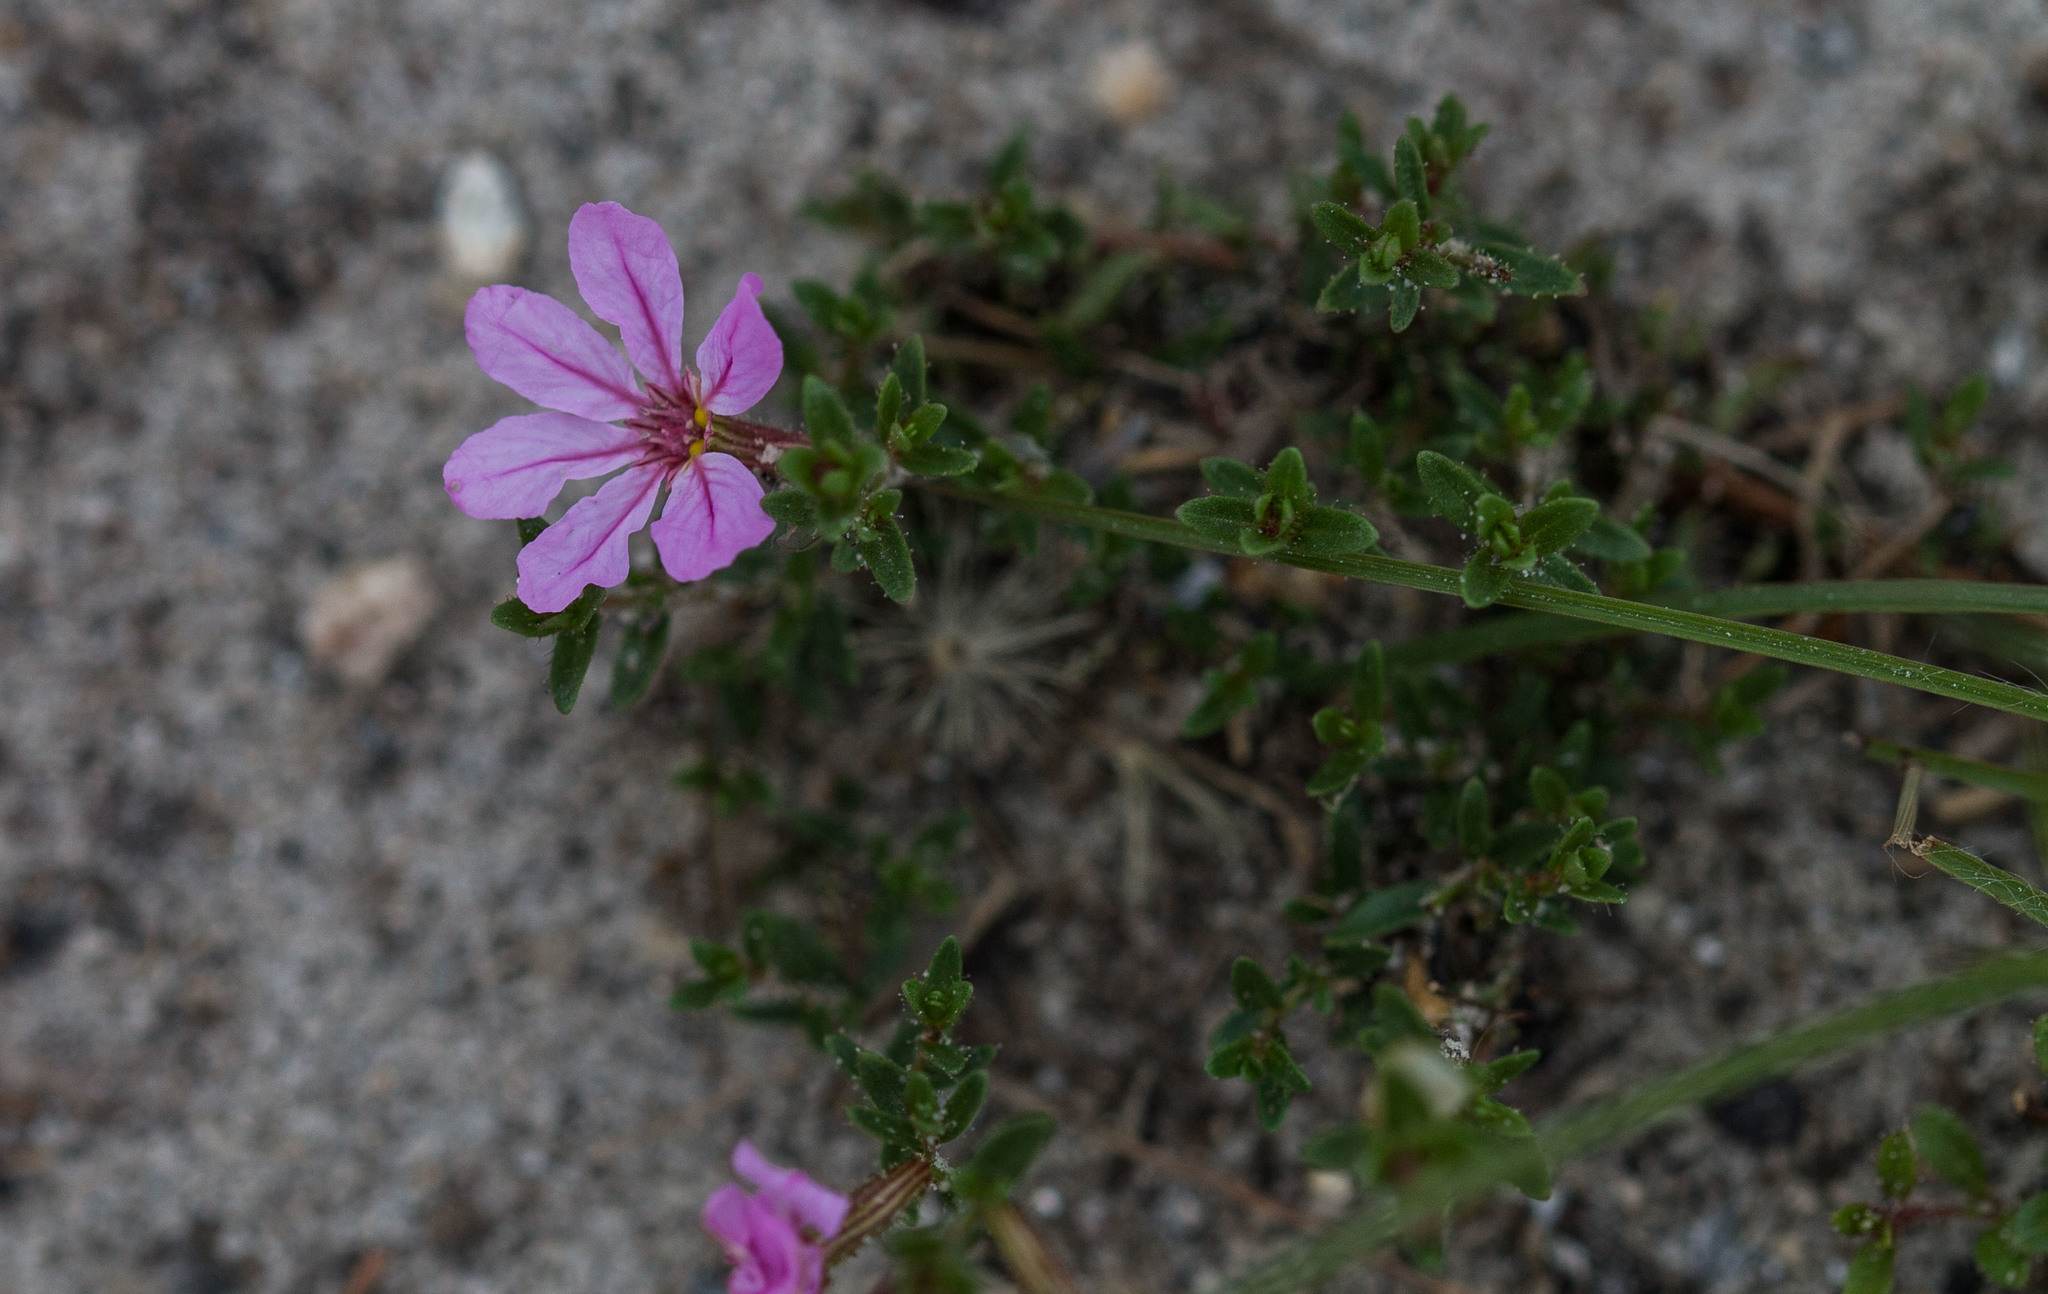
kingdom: Plantae
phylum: Tracheophyta
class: Magnoliopsida
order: Myrtales
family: Lythraceae
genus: Cuphea
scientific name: Cuphea thymoides
